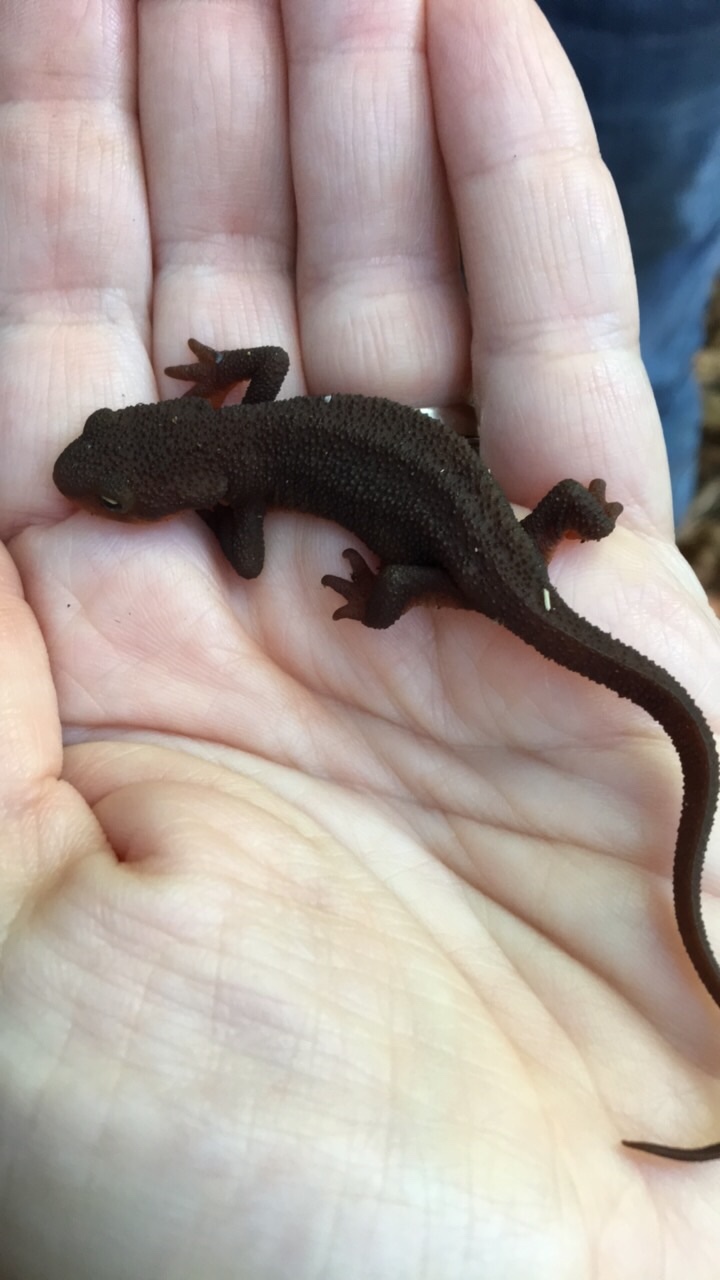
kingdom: Animalia
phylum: Chordata
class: Amphibia
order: Caudata
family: Salamandridae
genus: Taricha
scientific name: Taricha granulosa
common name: Roughskin newt
